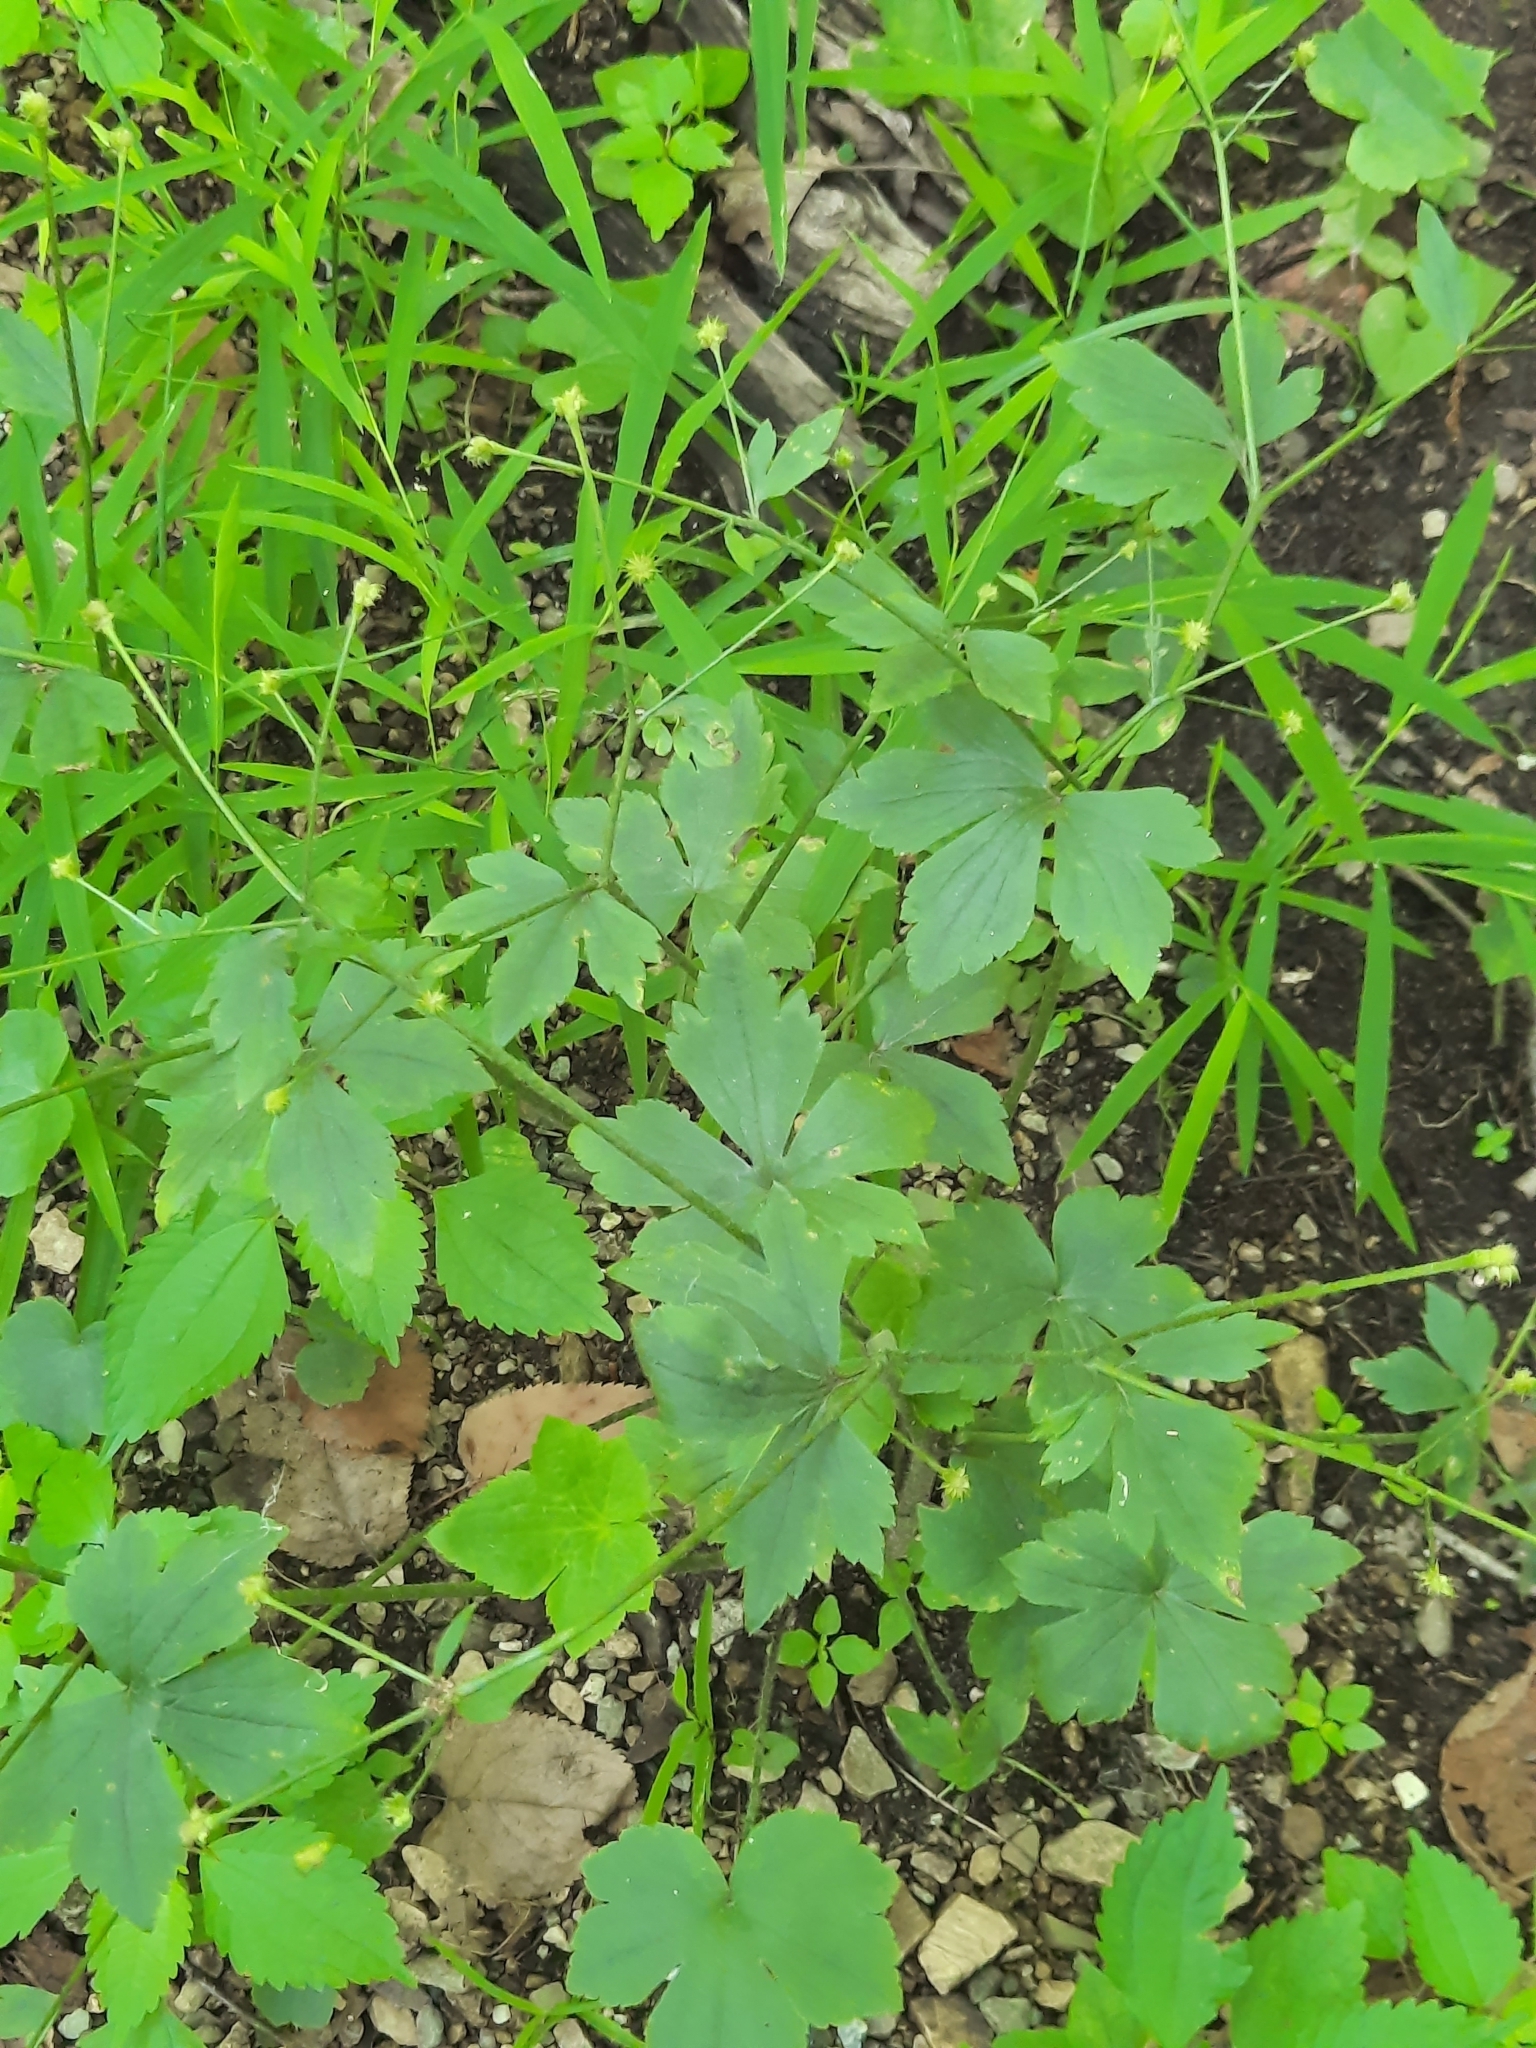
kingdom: Plantae
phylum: Tracheophyta
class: Magnoliopsida
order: Ranunculales
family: Ranunculaceae
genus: Ranunculus
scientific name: Ranunculus recurvatus
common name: Blisterwort
